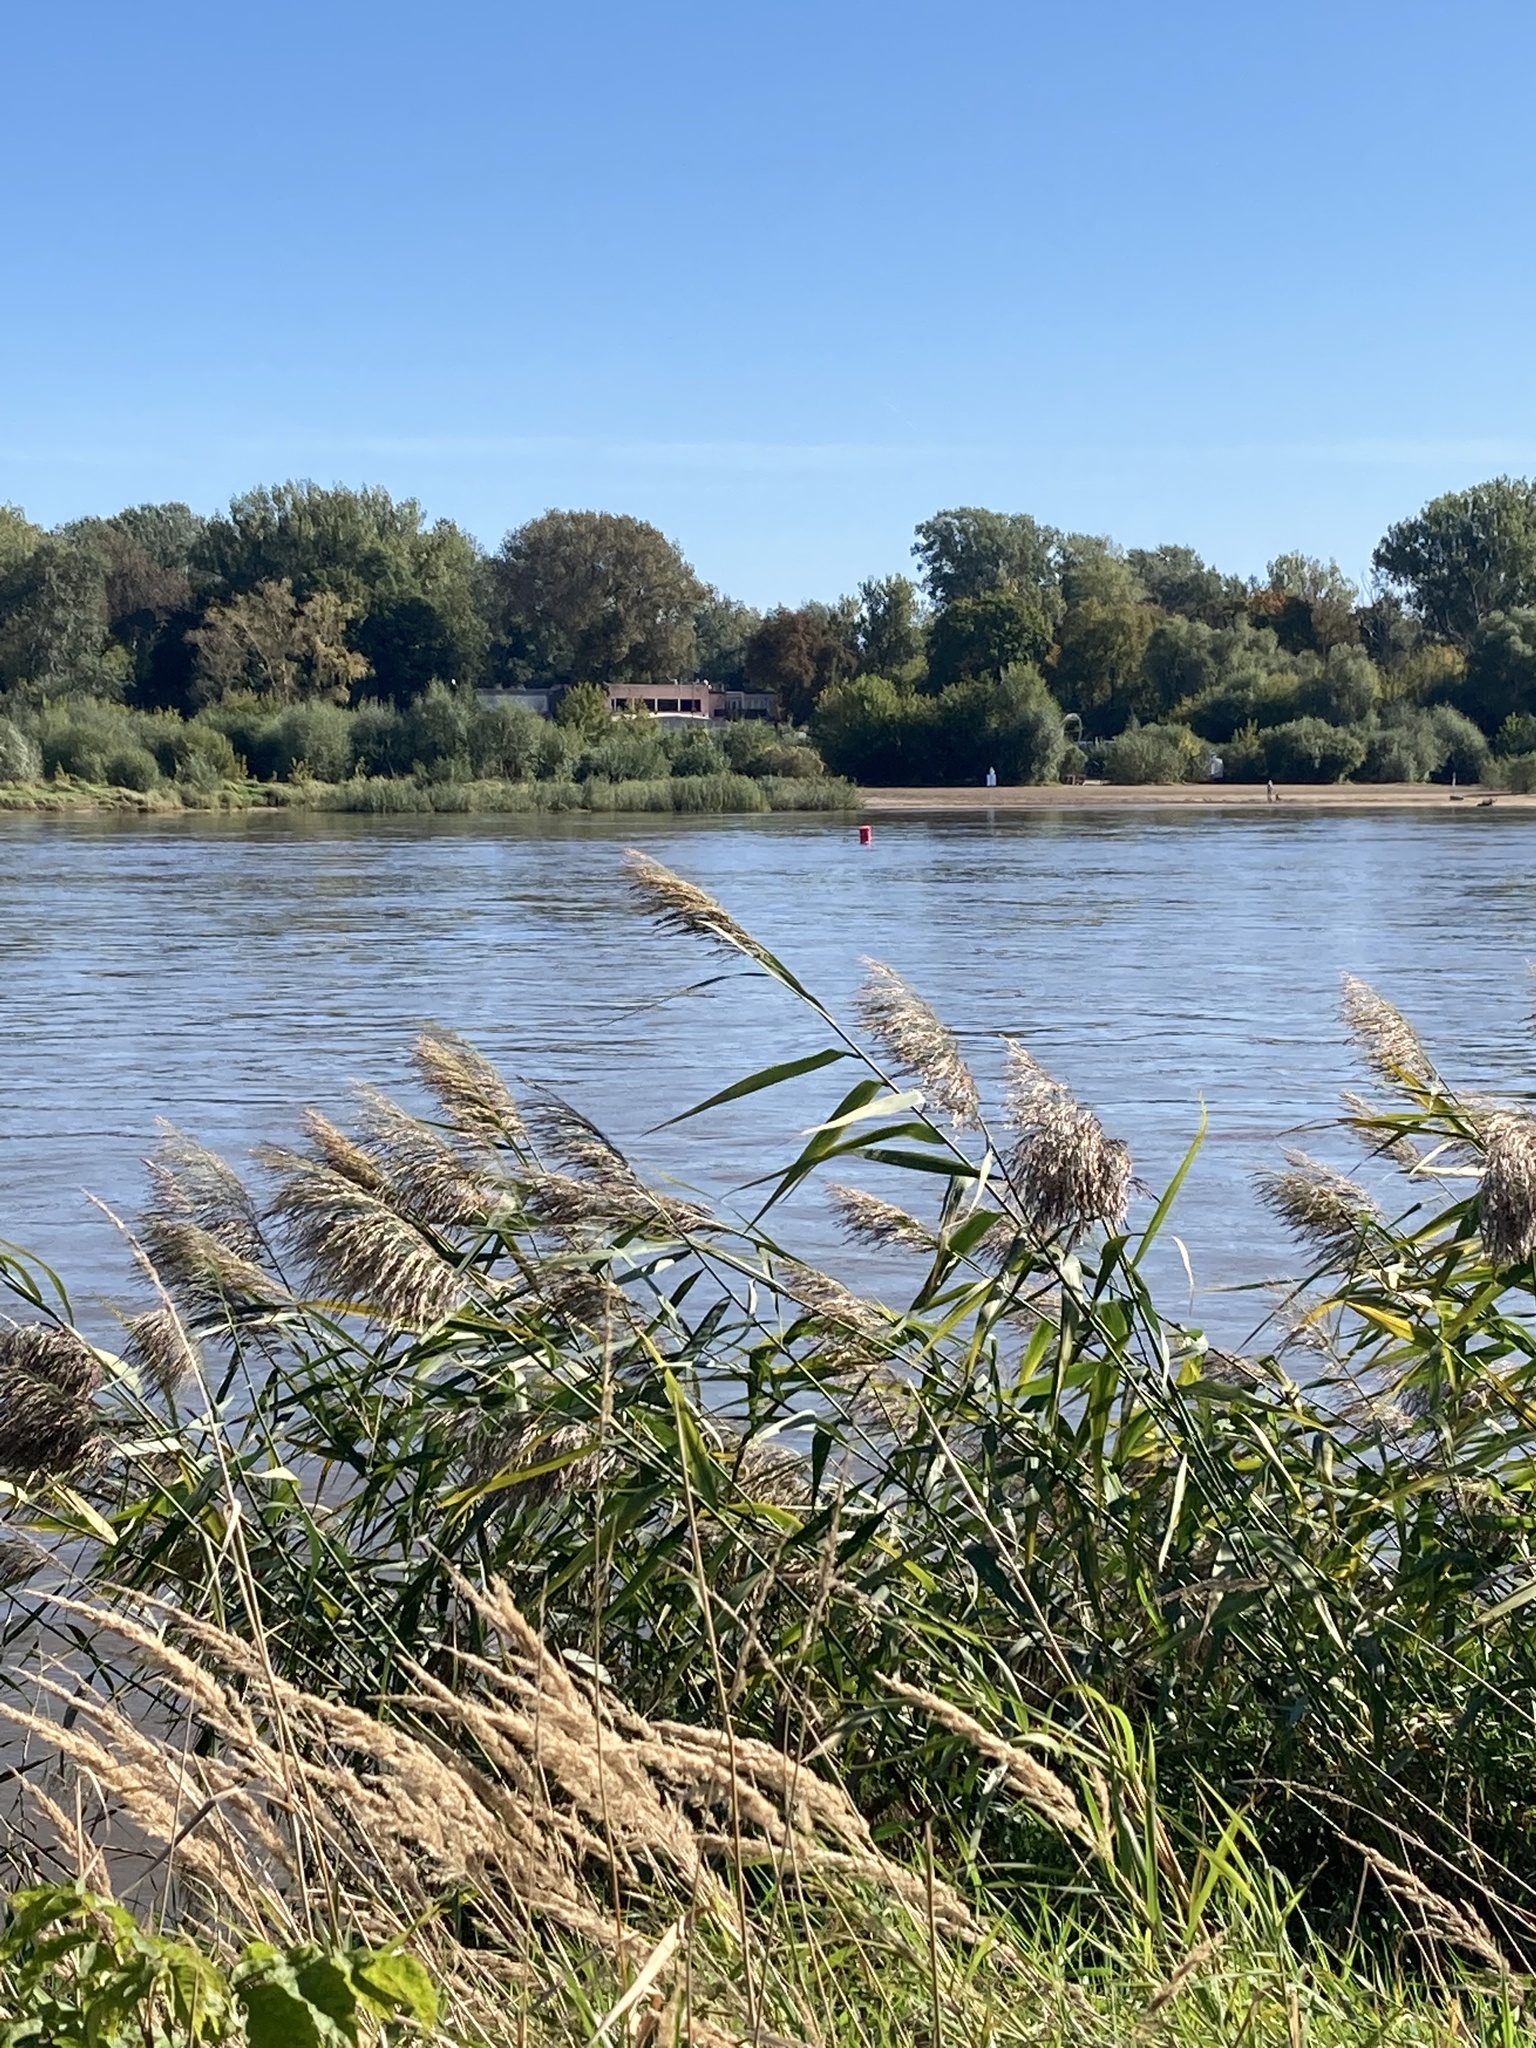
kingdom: Plantae
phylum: Tracheophyta
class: Liliopsida
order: Poales
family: Poaceae
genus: Phragmites
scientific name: Phragmites australis
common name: Common reed
